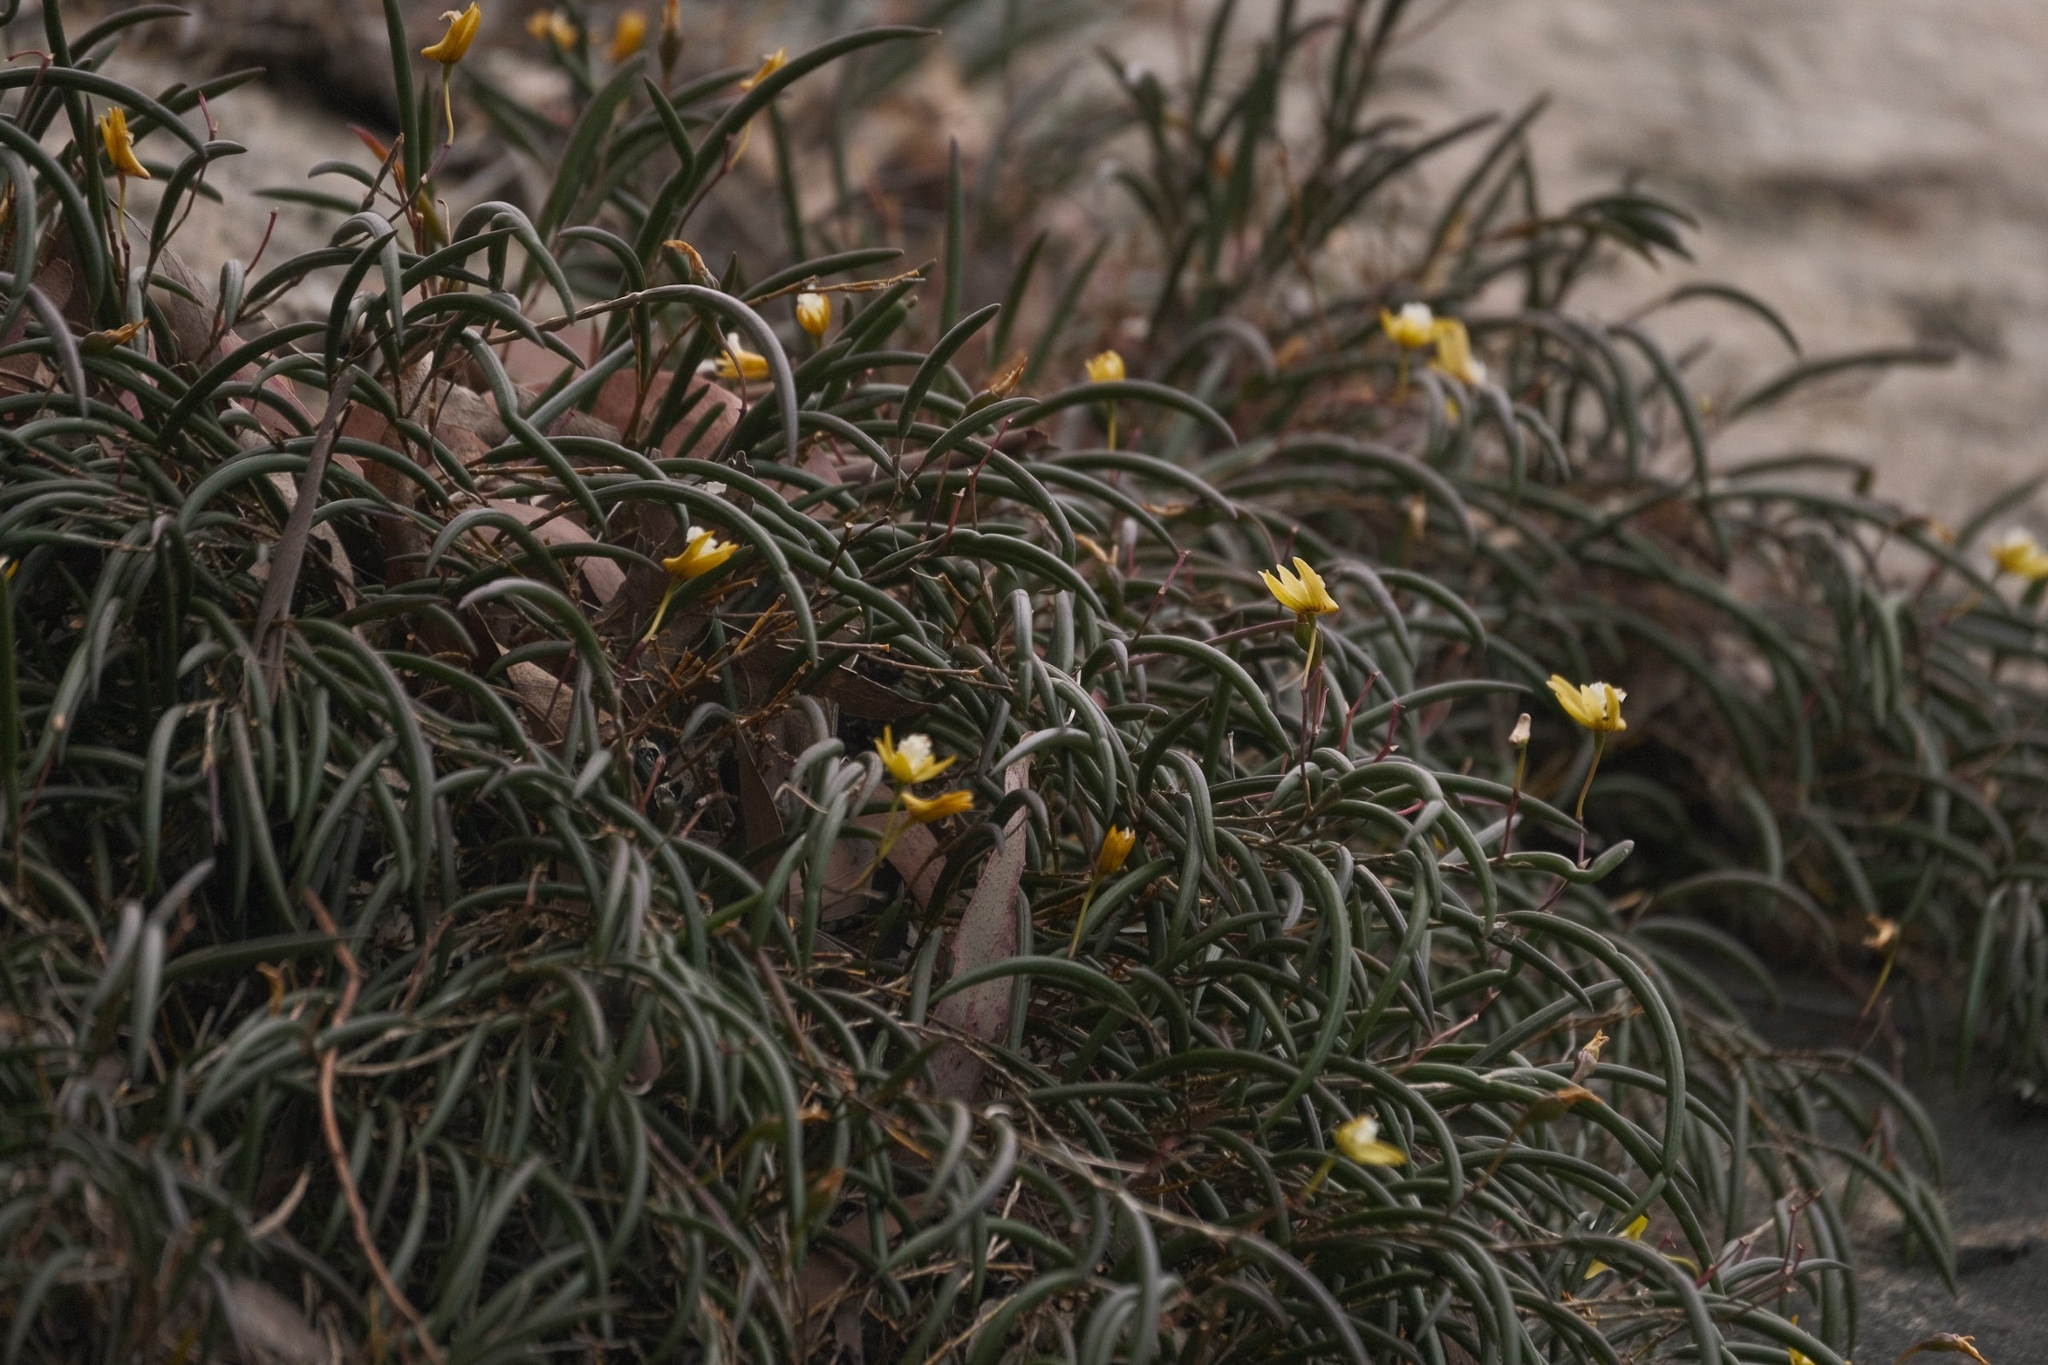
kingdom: Plantae
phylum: Tracheophyta
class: Liliopsida
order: Asparagales
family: Orchidaceae
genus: Dendrobium
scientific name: Dendrobium striolatum
